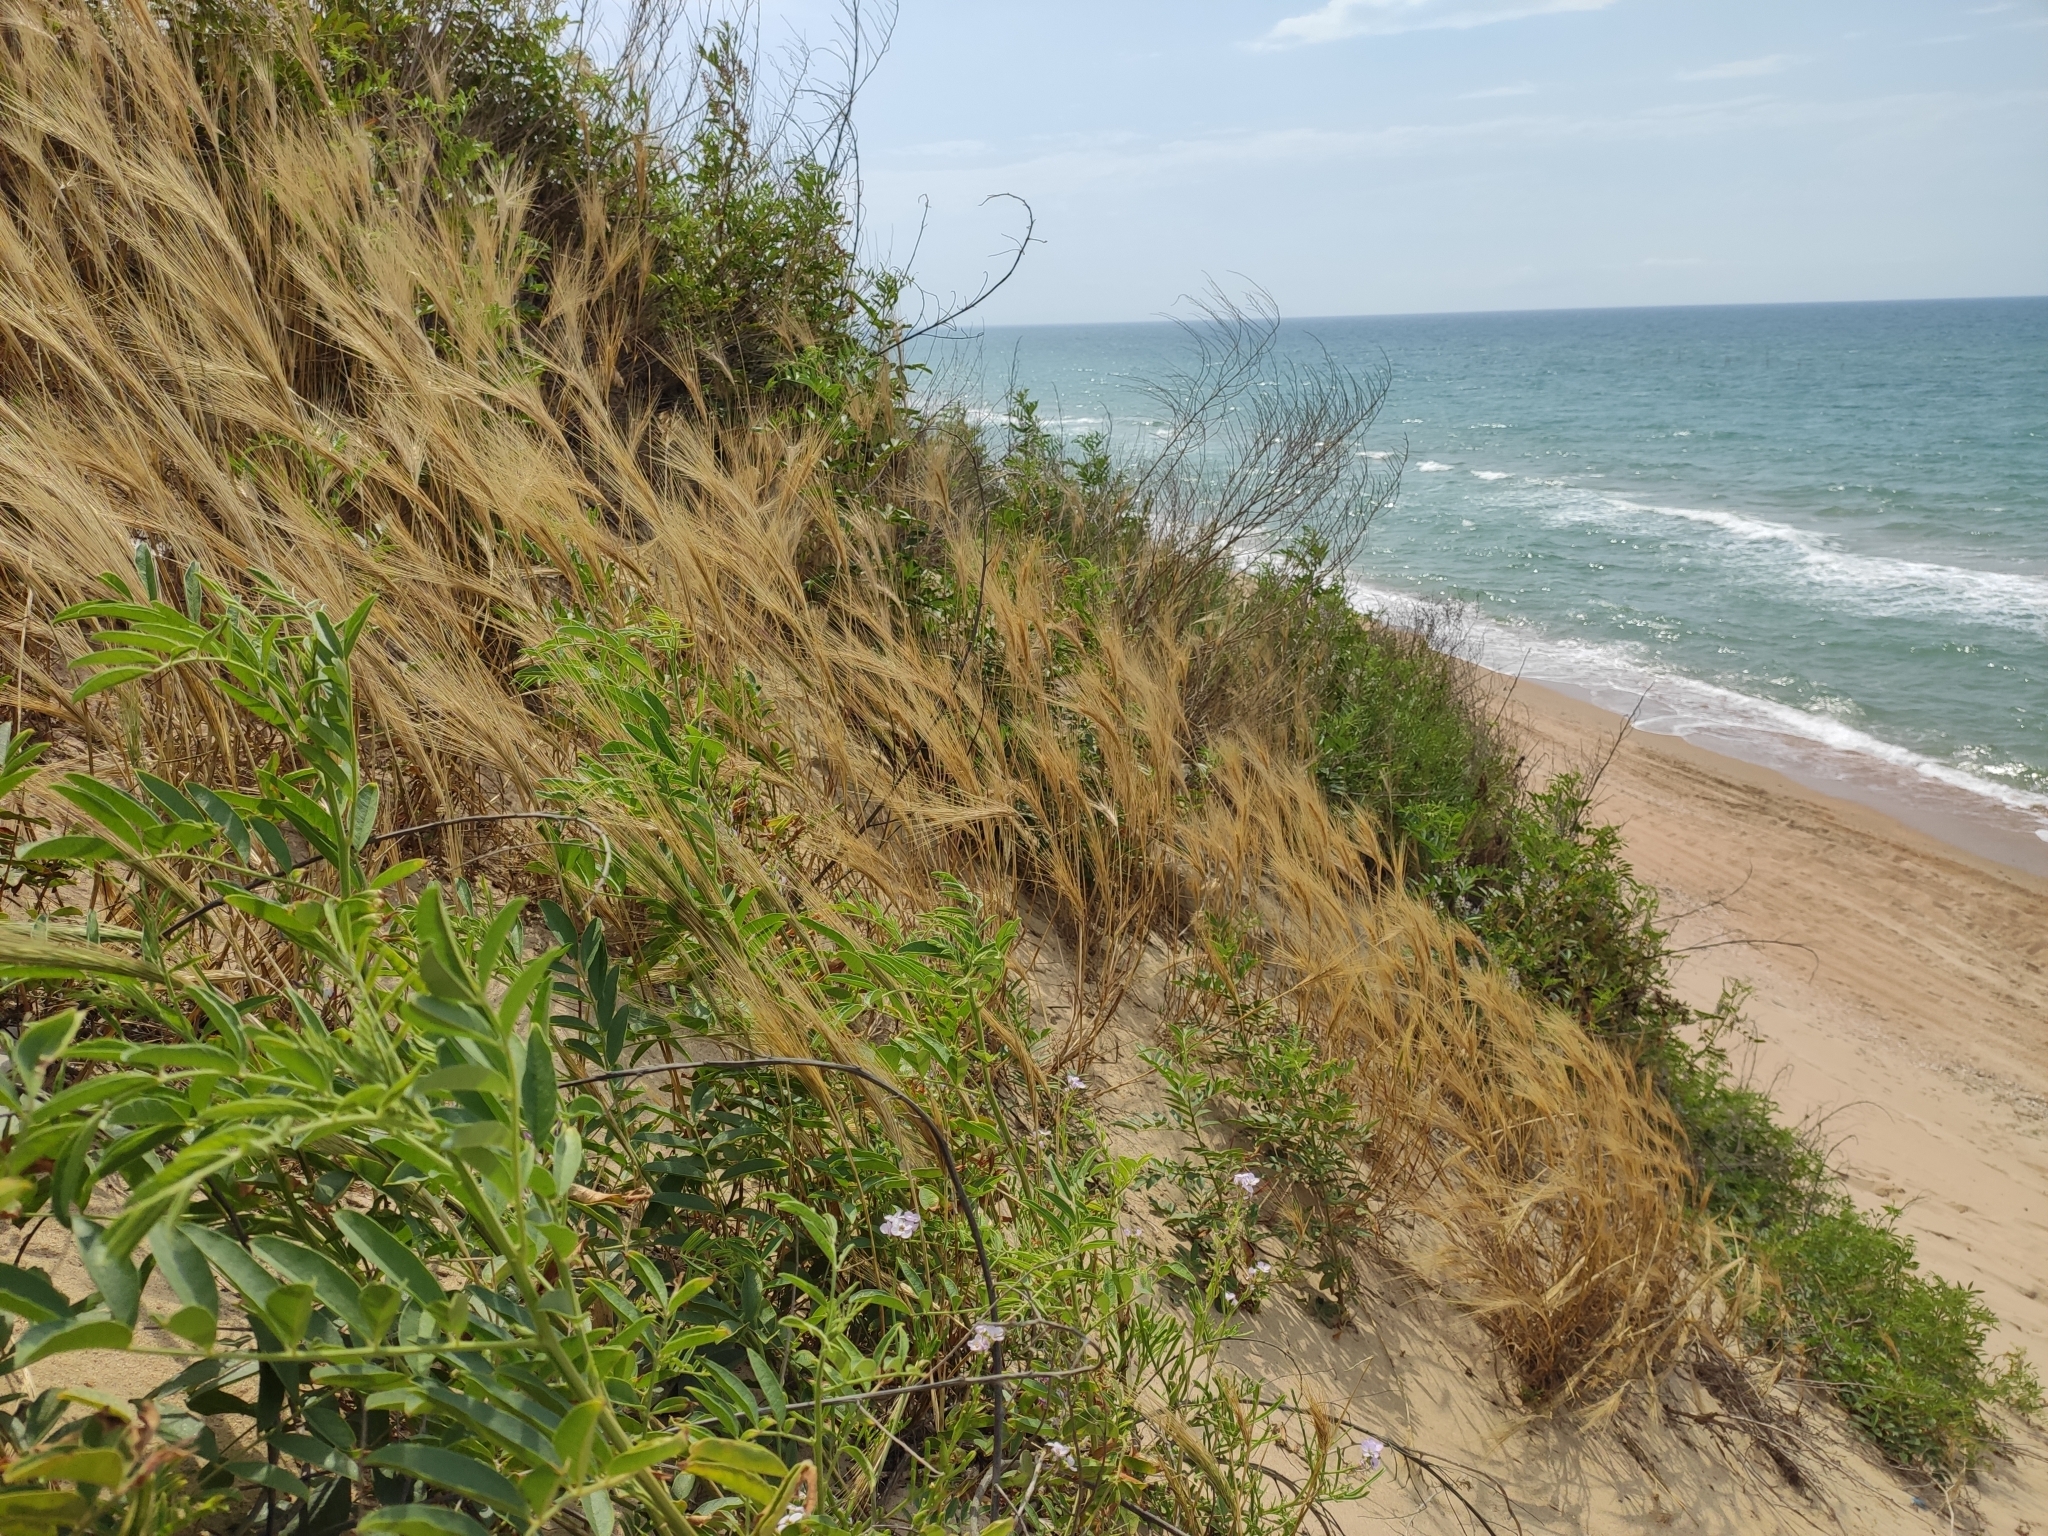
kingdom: Plantae
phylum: Tracheophyta
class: Liliopsida
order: Poales
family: Poaceae
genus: Hordeum
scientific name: Hordeum murinum
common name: Wall barley
